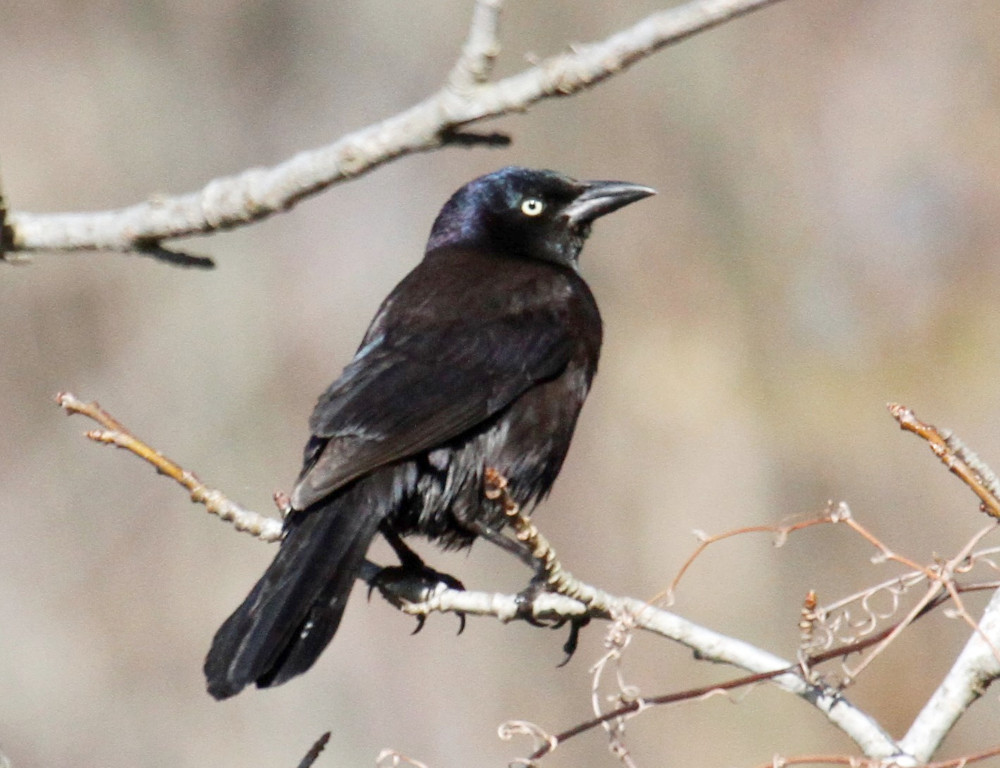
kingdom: Animalia
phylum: Chordata
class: Aves
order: Passeriformes
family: Icteridae
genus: Quiscalus
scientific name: Quiscalus quiscula
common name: Common grackle
